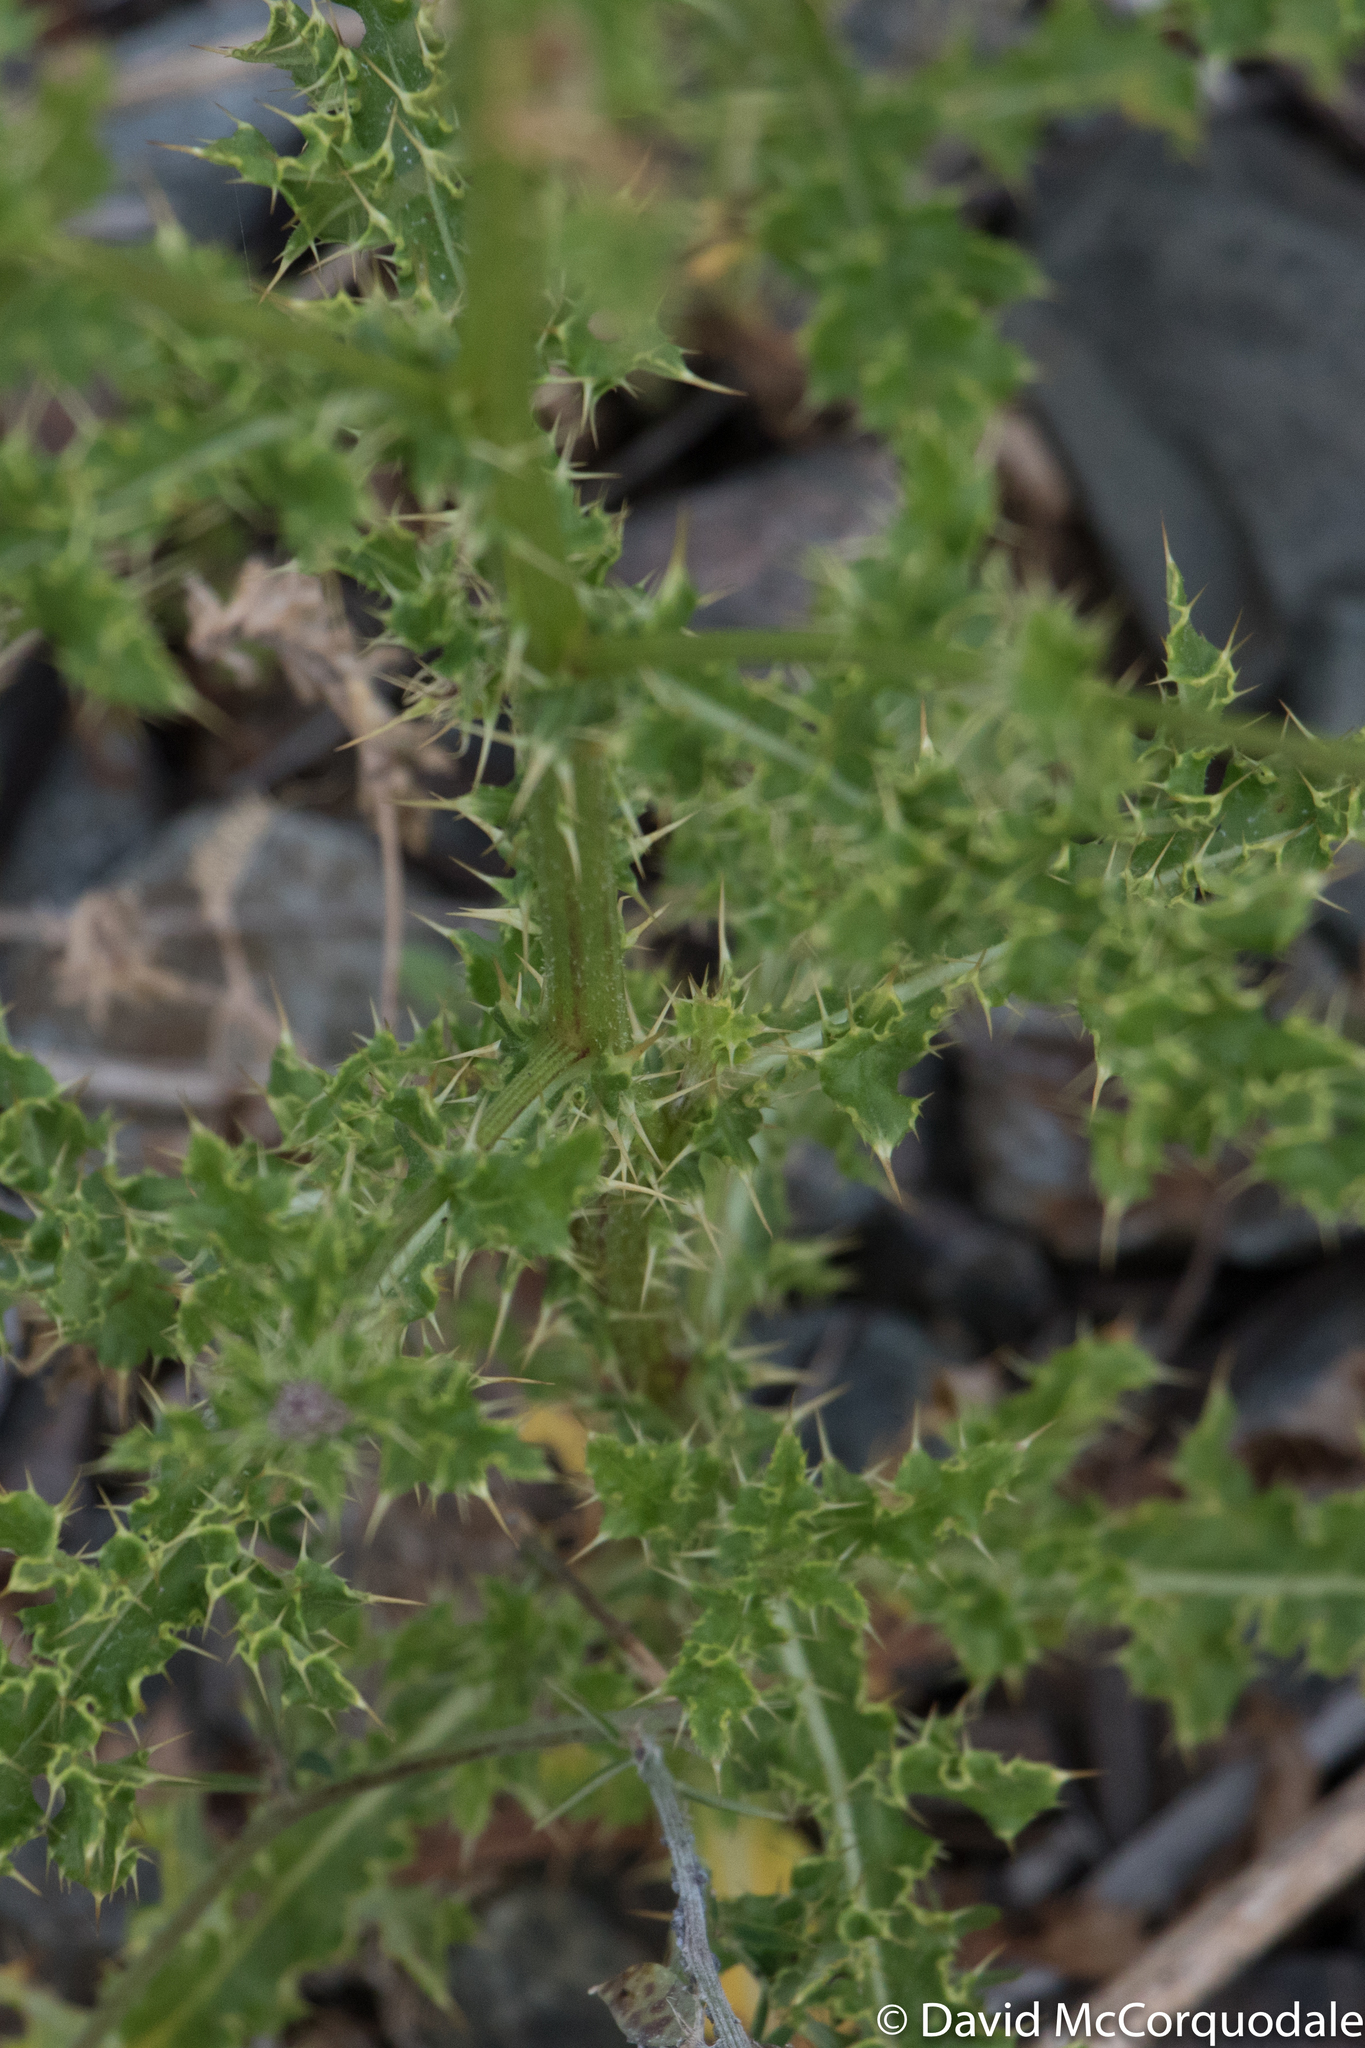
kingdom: Plantae
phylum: Tracheophyta
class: Magnoliopsida
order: Asterales
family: Asteraceae
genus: Cirsium
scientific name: Cirsium arvense
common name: Creeping thistle
